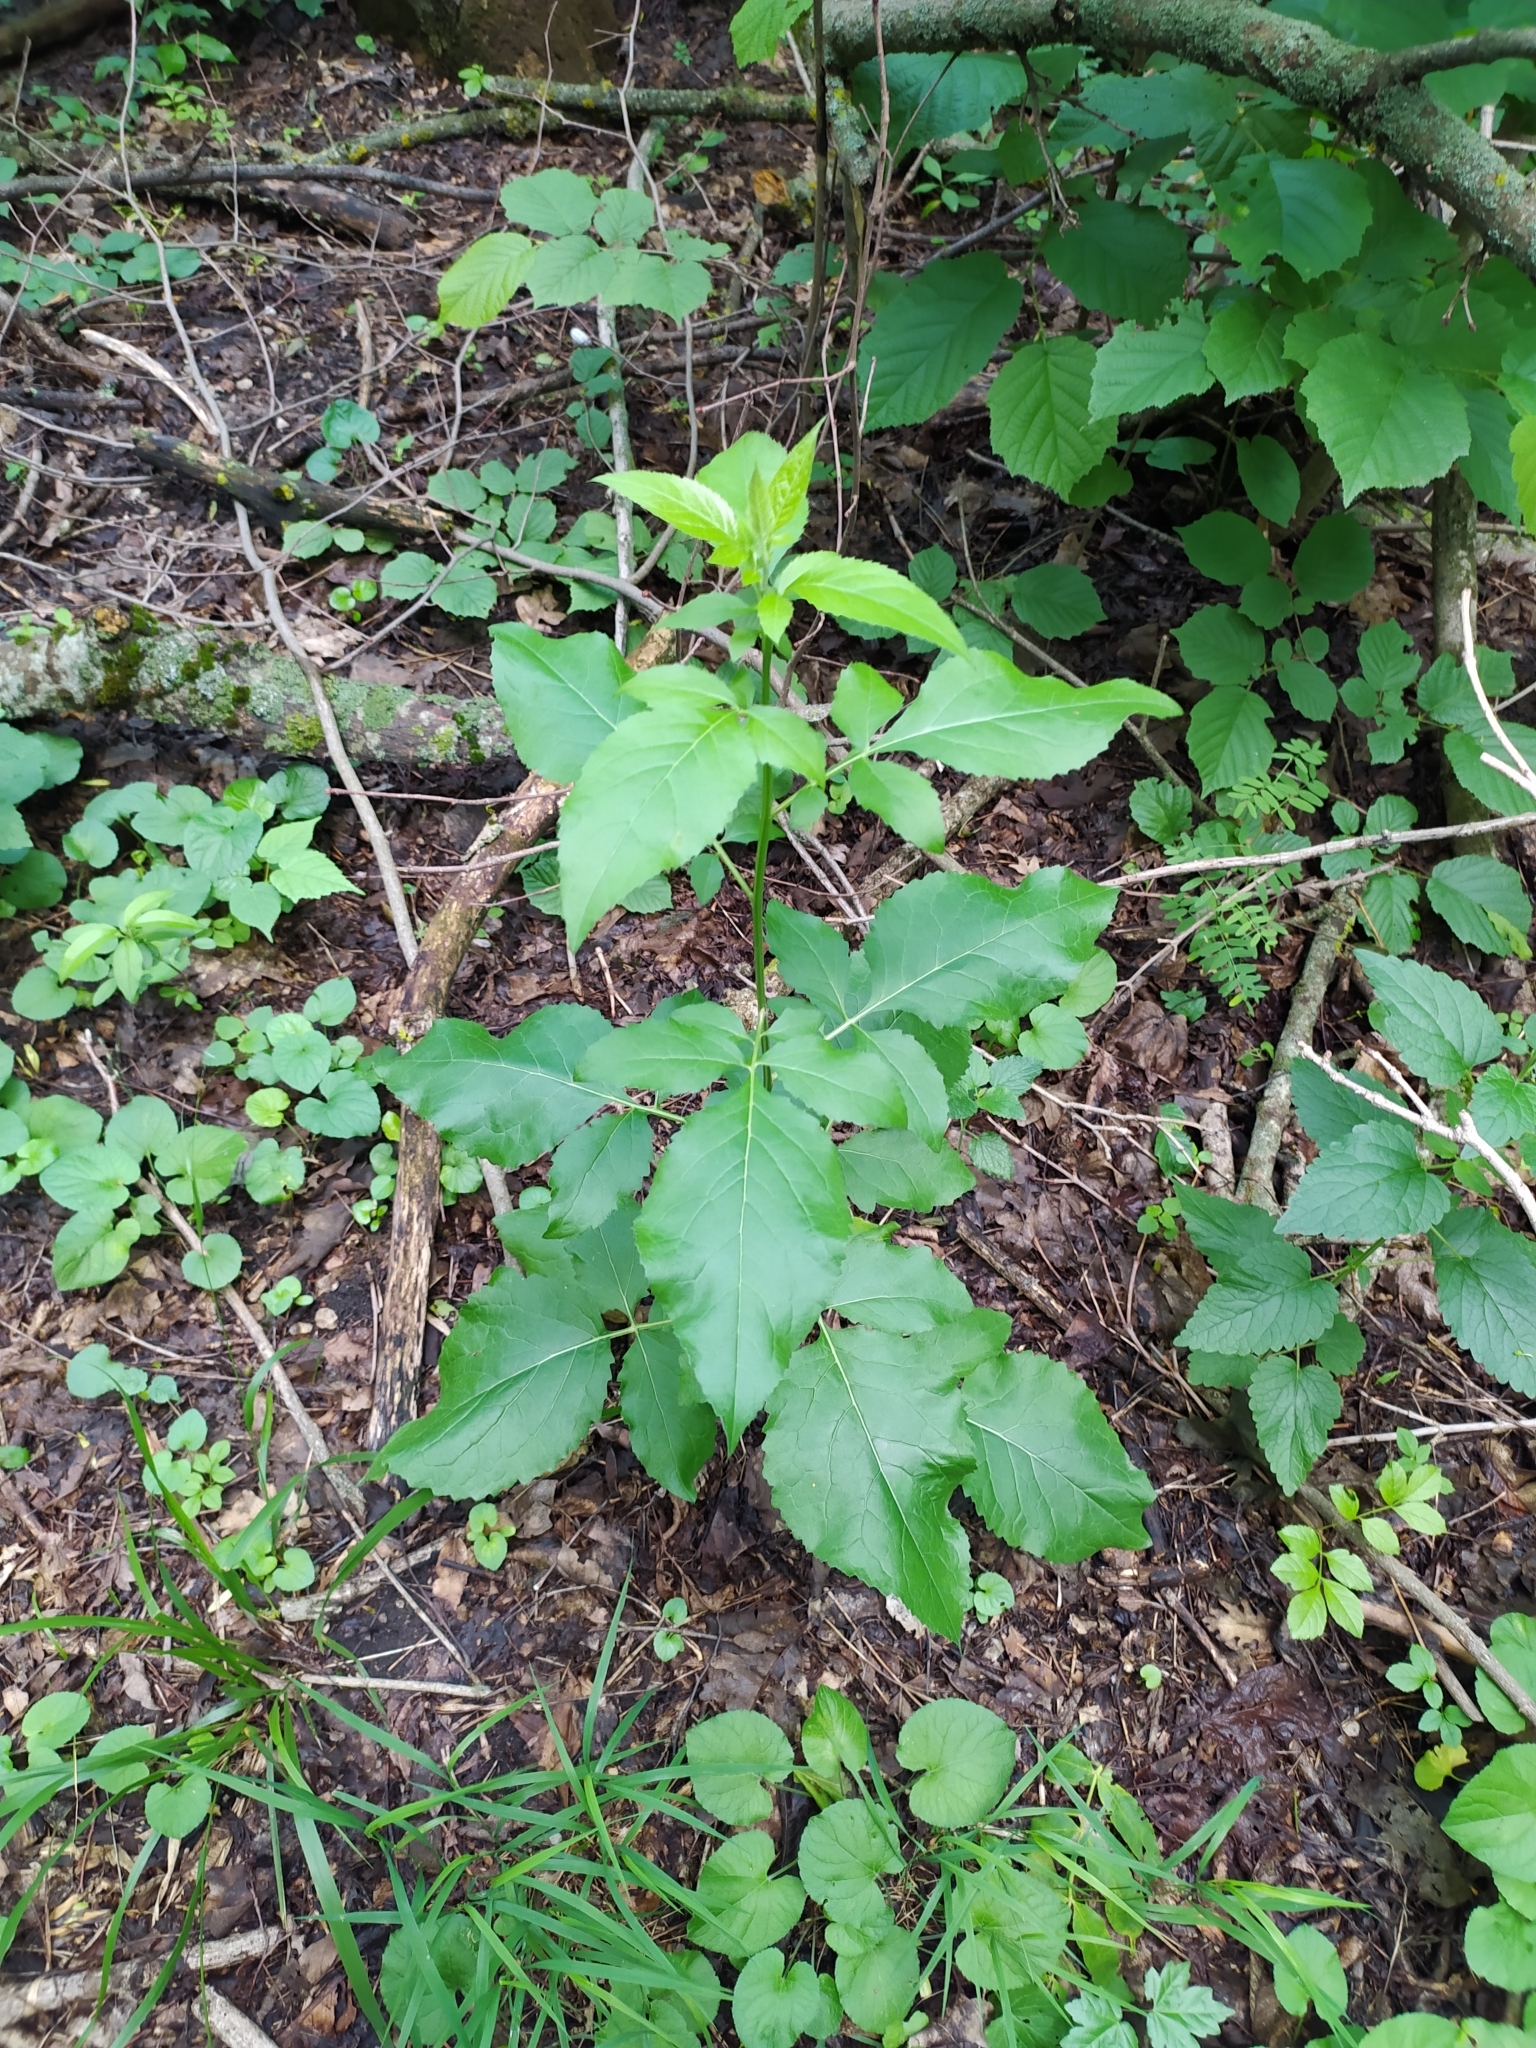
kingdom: Plantae
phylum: Tracheophyta
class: Magnoliopsida
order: Asterales
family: Asteraceae
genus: Klasea
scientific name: Klasea quinquefolia
